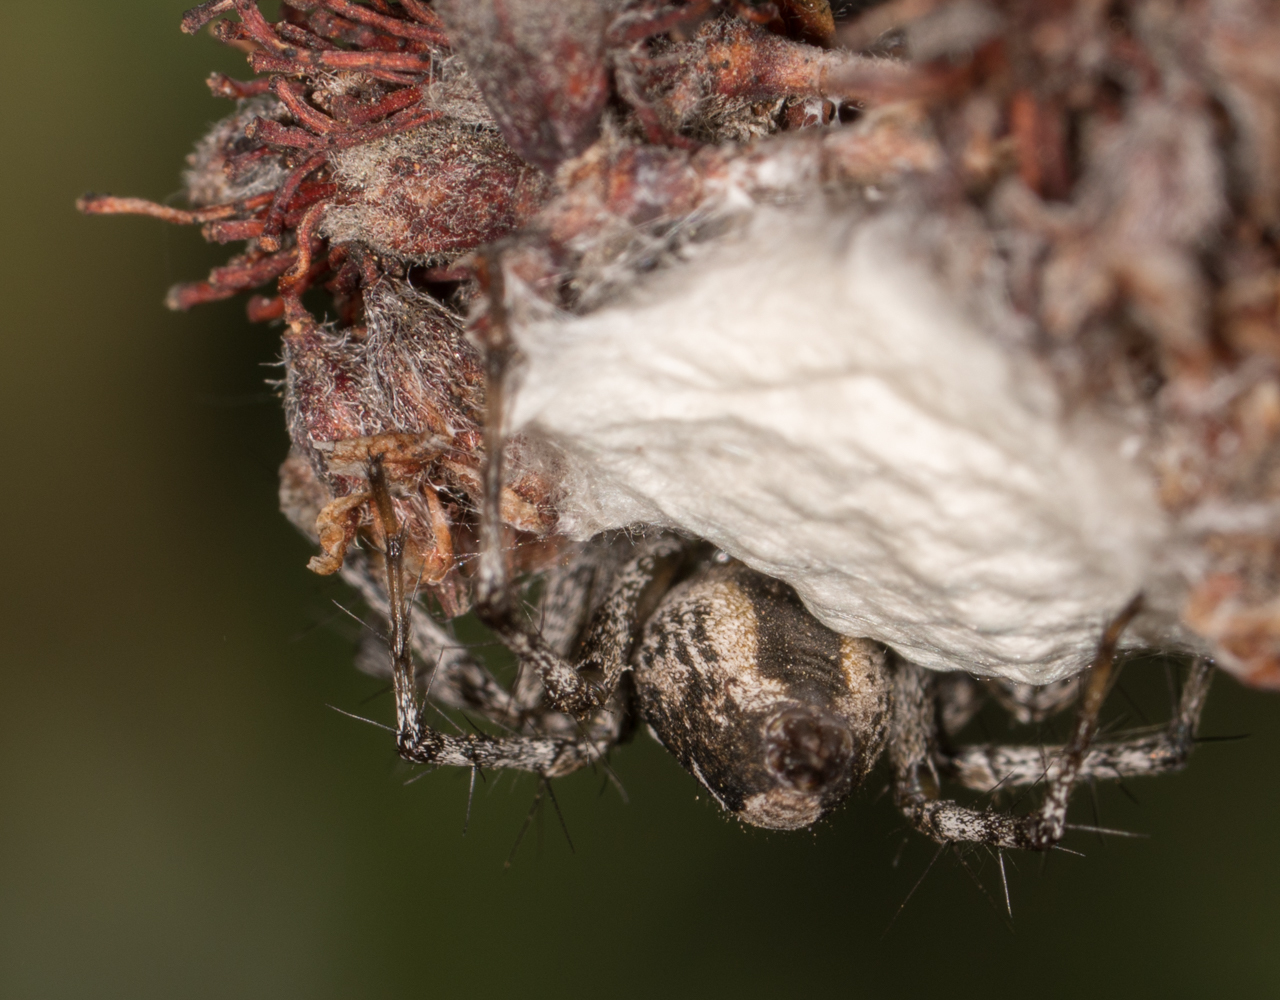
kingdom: Animalia
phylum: Arthropoda
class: Arachnida
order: Araneae
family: Oxyopidae
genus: Oxyopes
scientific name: Oxyopes scalaris
